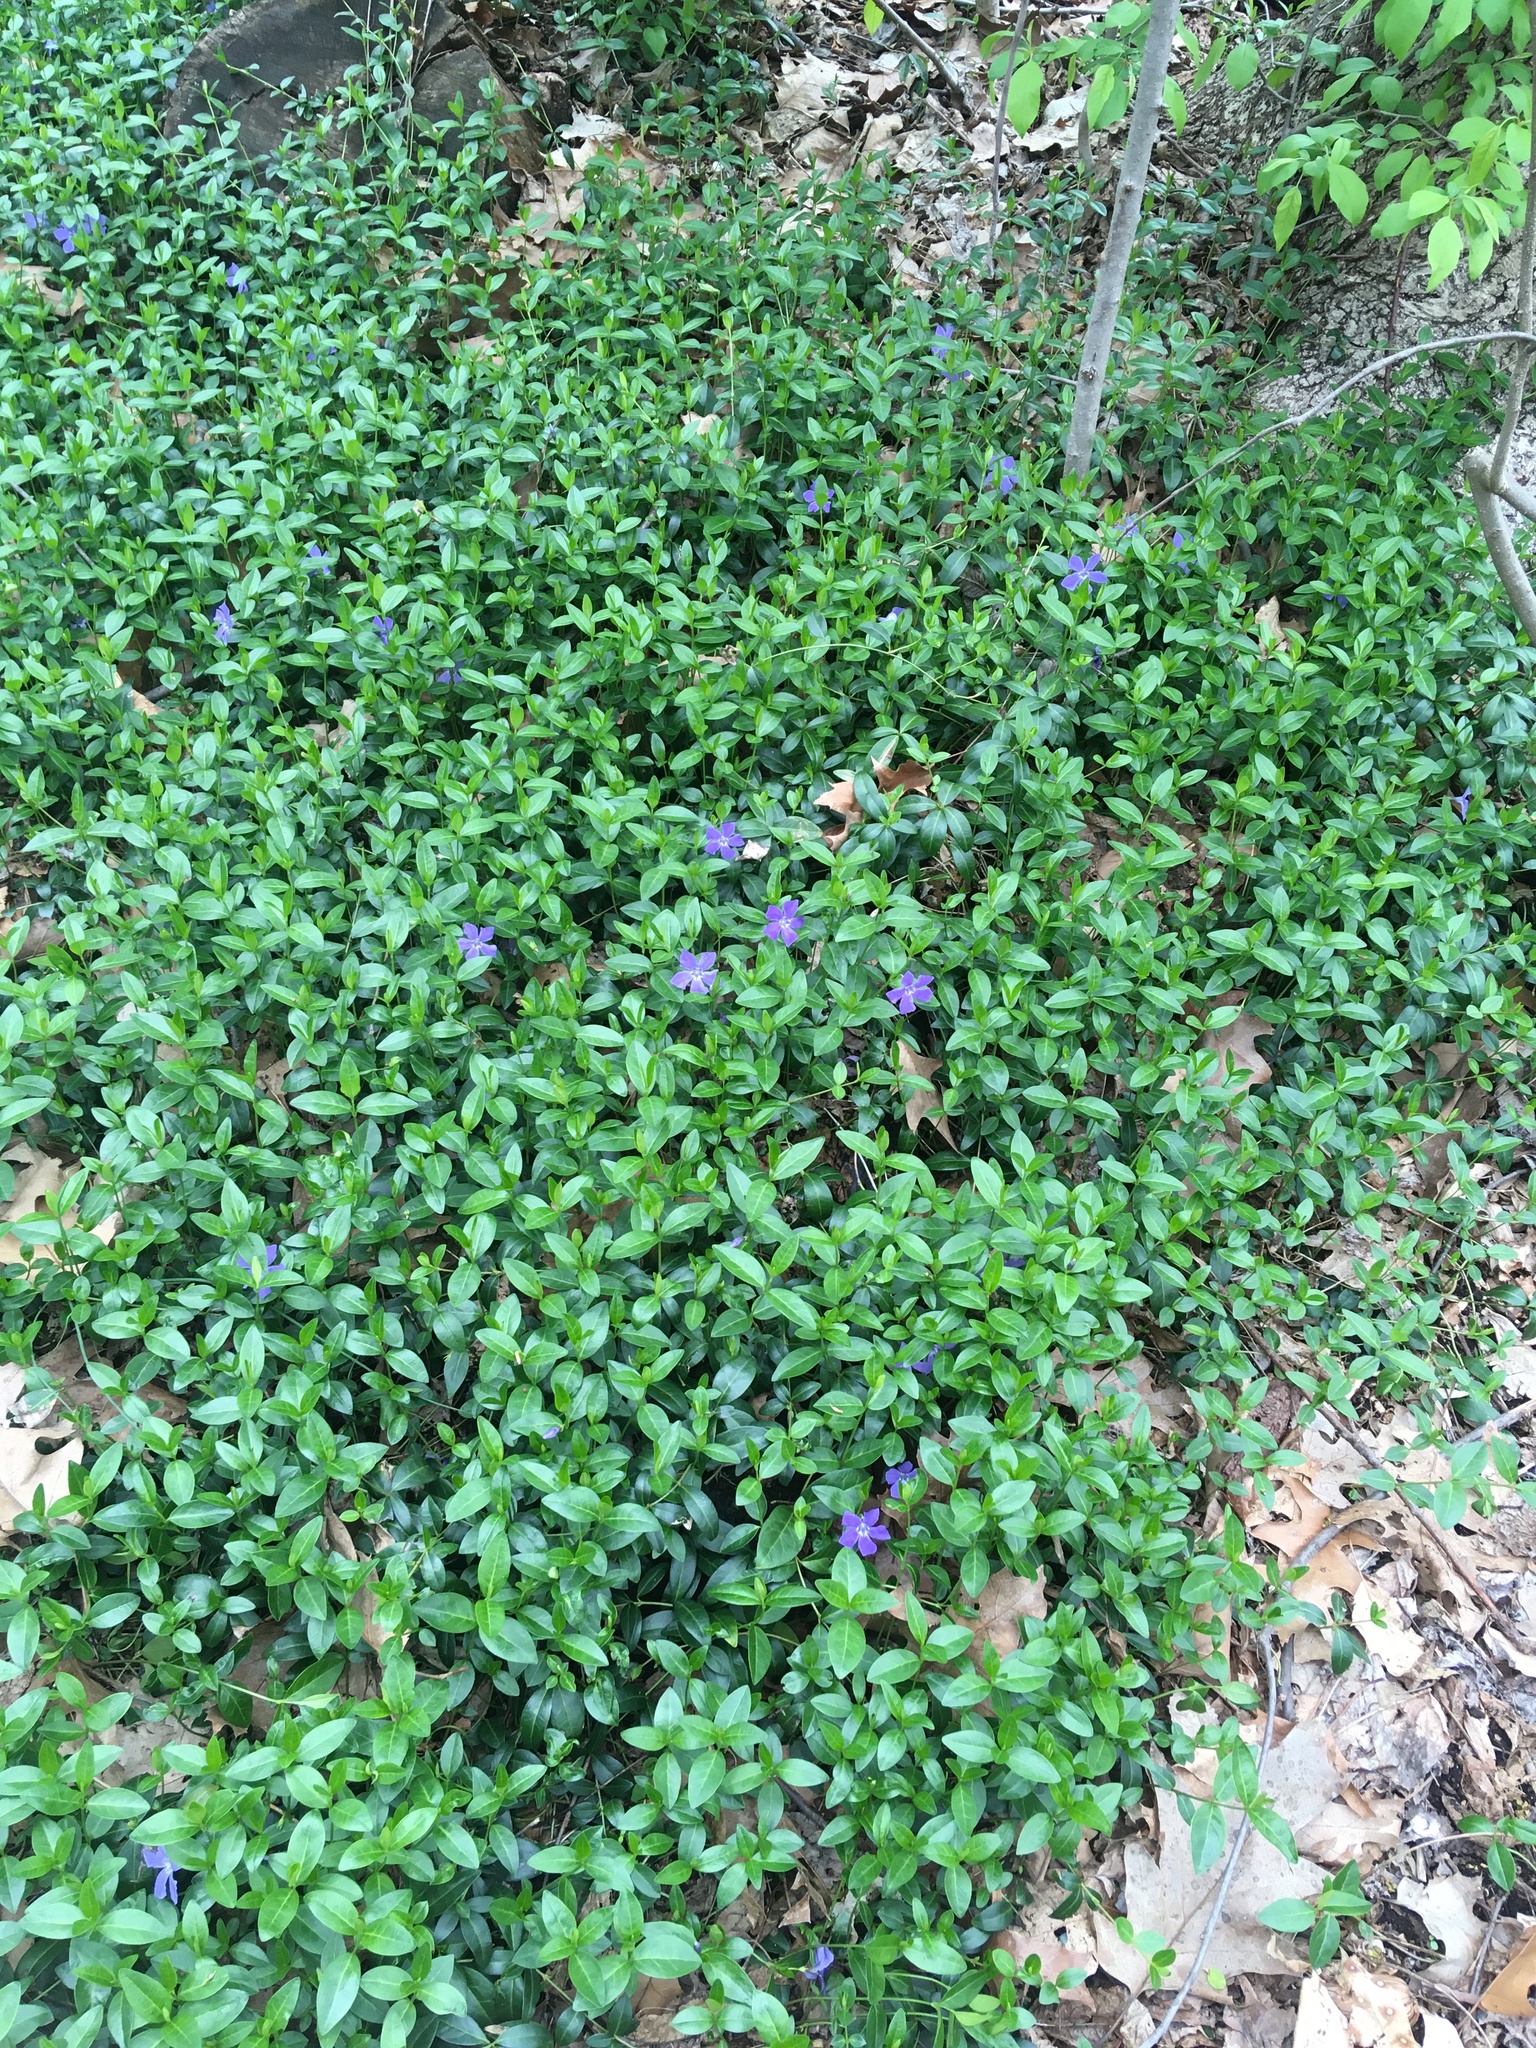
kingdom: Plantae
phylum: Tracheophyta
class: Magnoliopsida
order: Gentianales
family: Apocynaceae
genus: Vinca
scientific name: Vinca minor
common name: Lesser periwinkle
